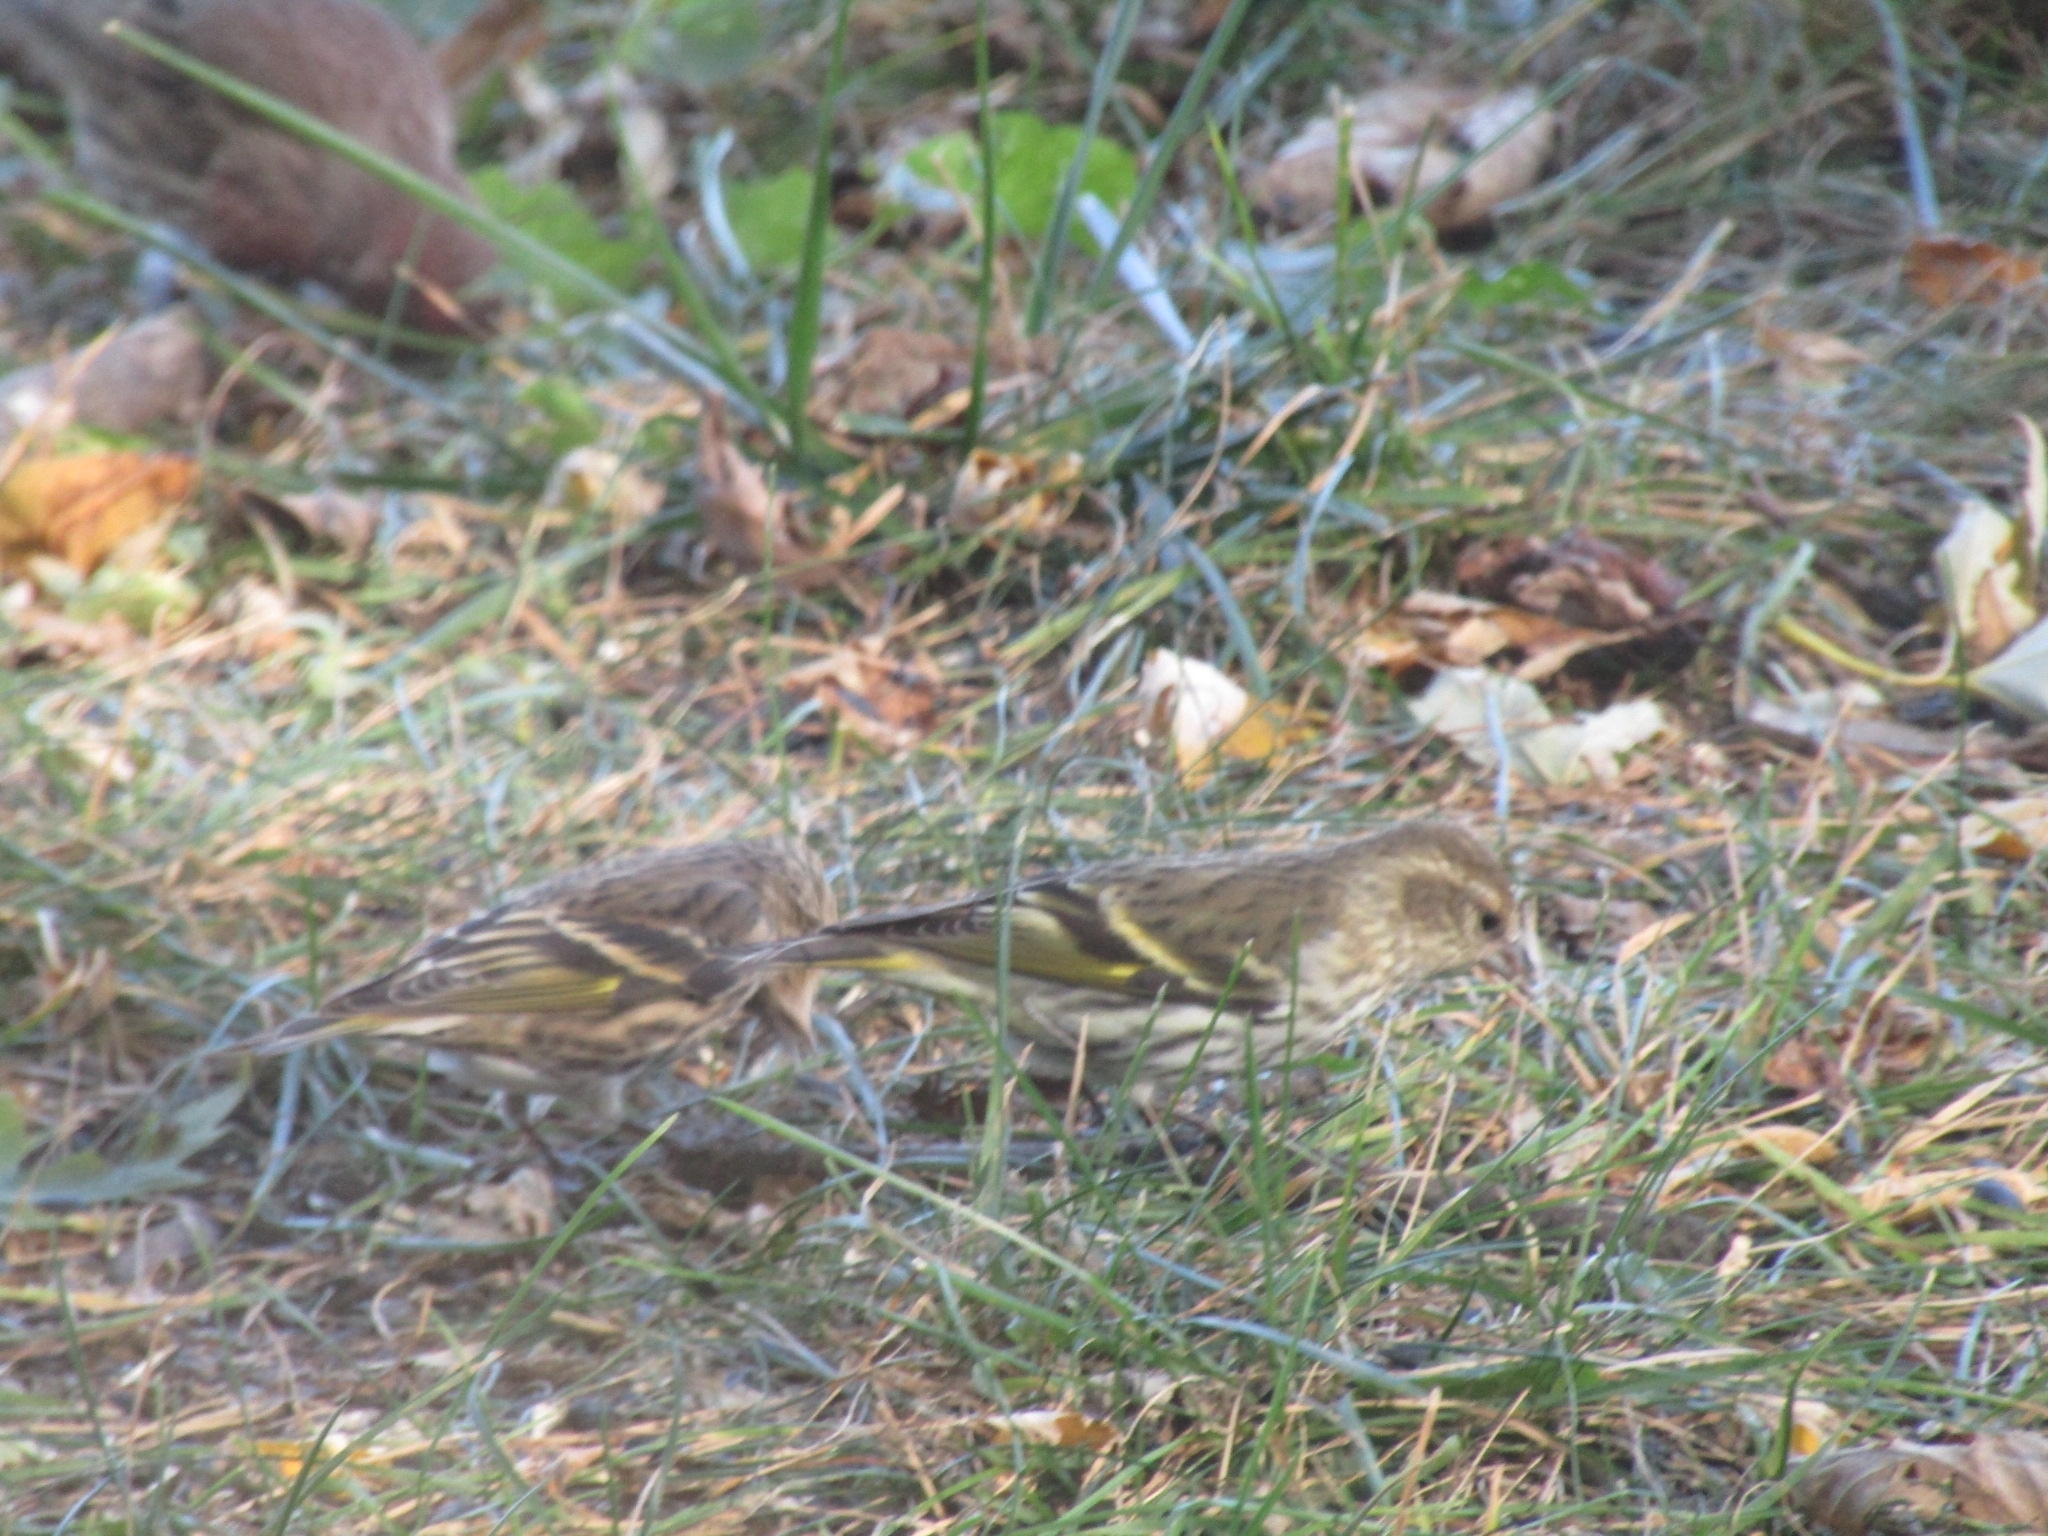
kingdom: Animalia
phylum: Chordata
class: Aves
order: Passeriformes
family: Fringillidae
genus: Spinus
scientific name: Spinus pinus
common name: Pine siskin
